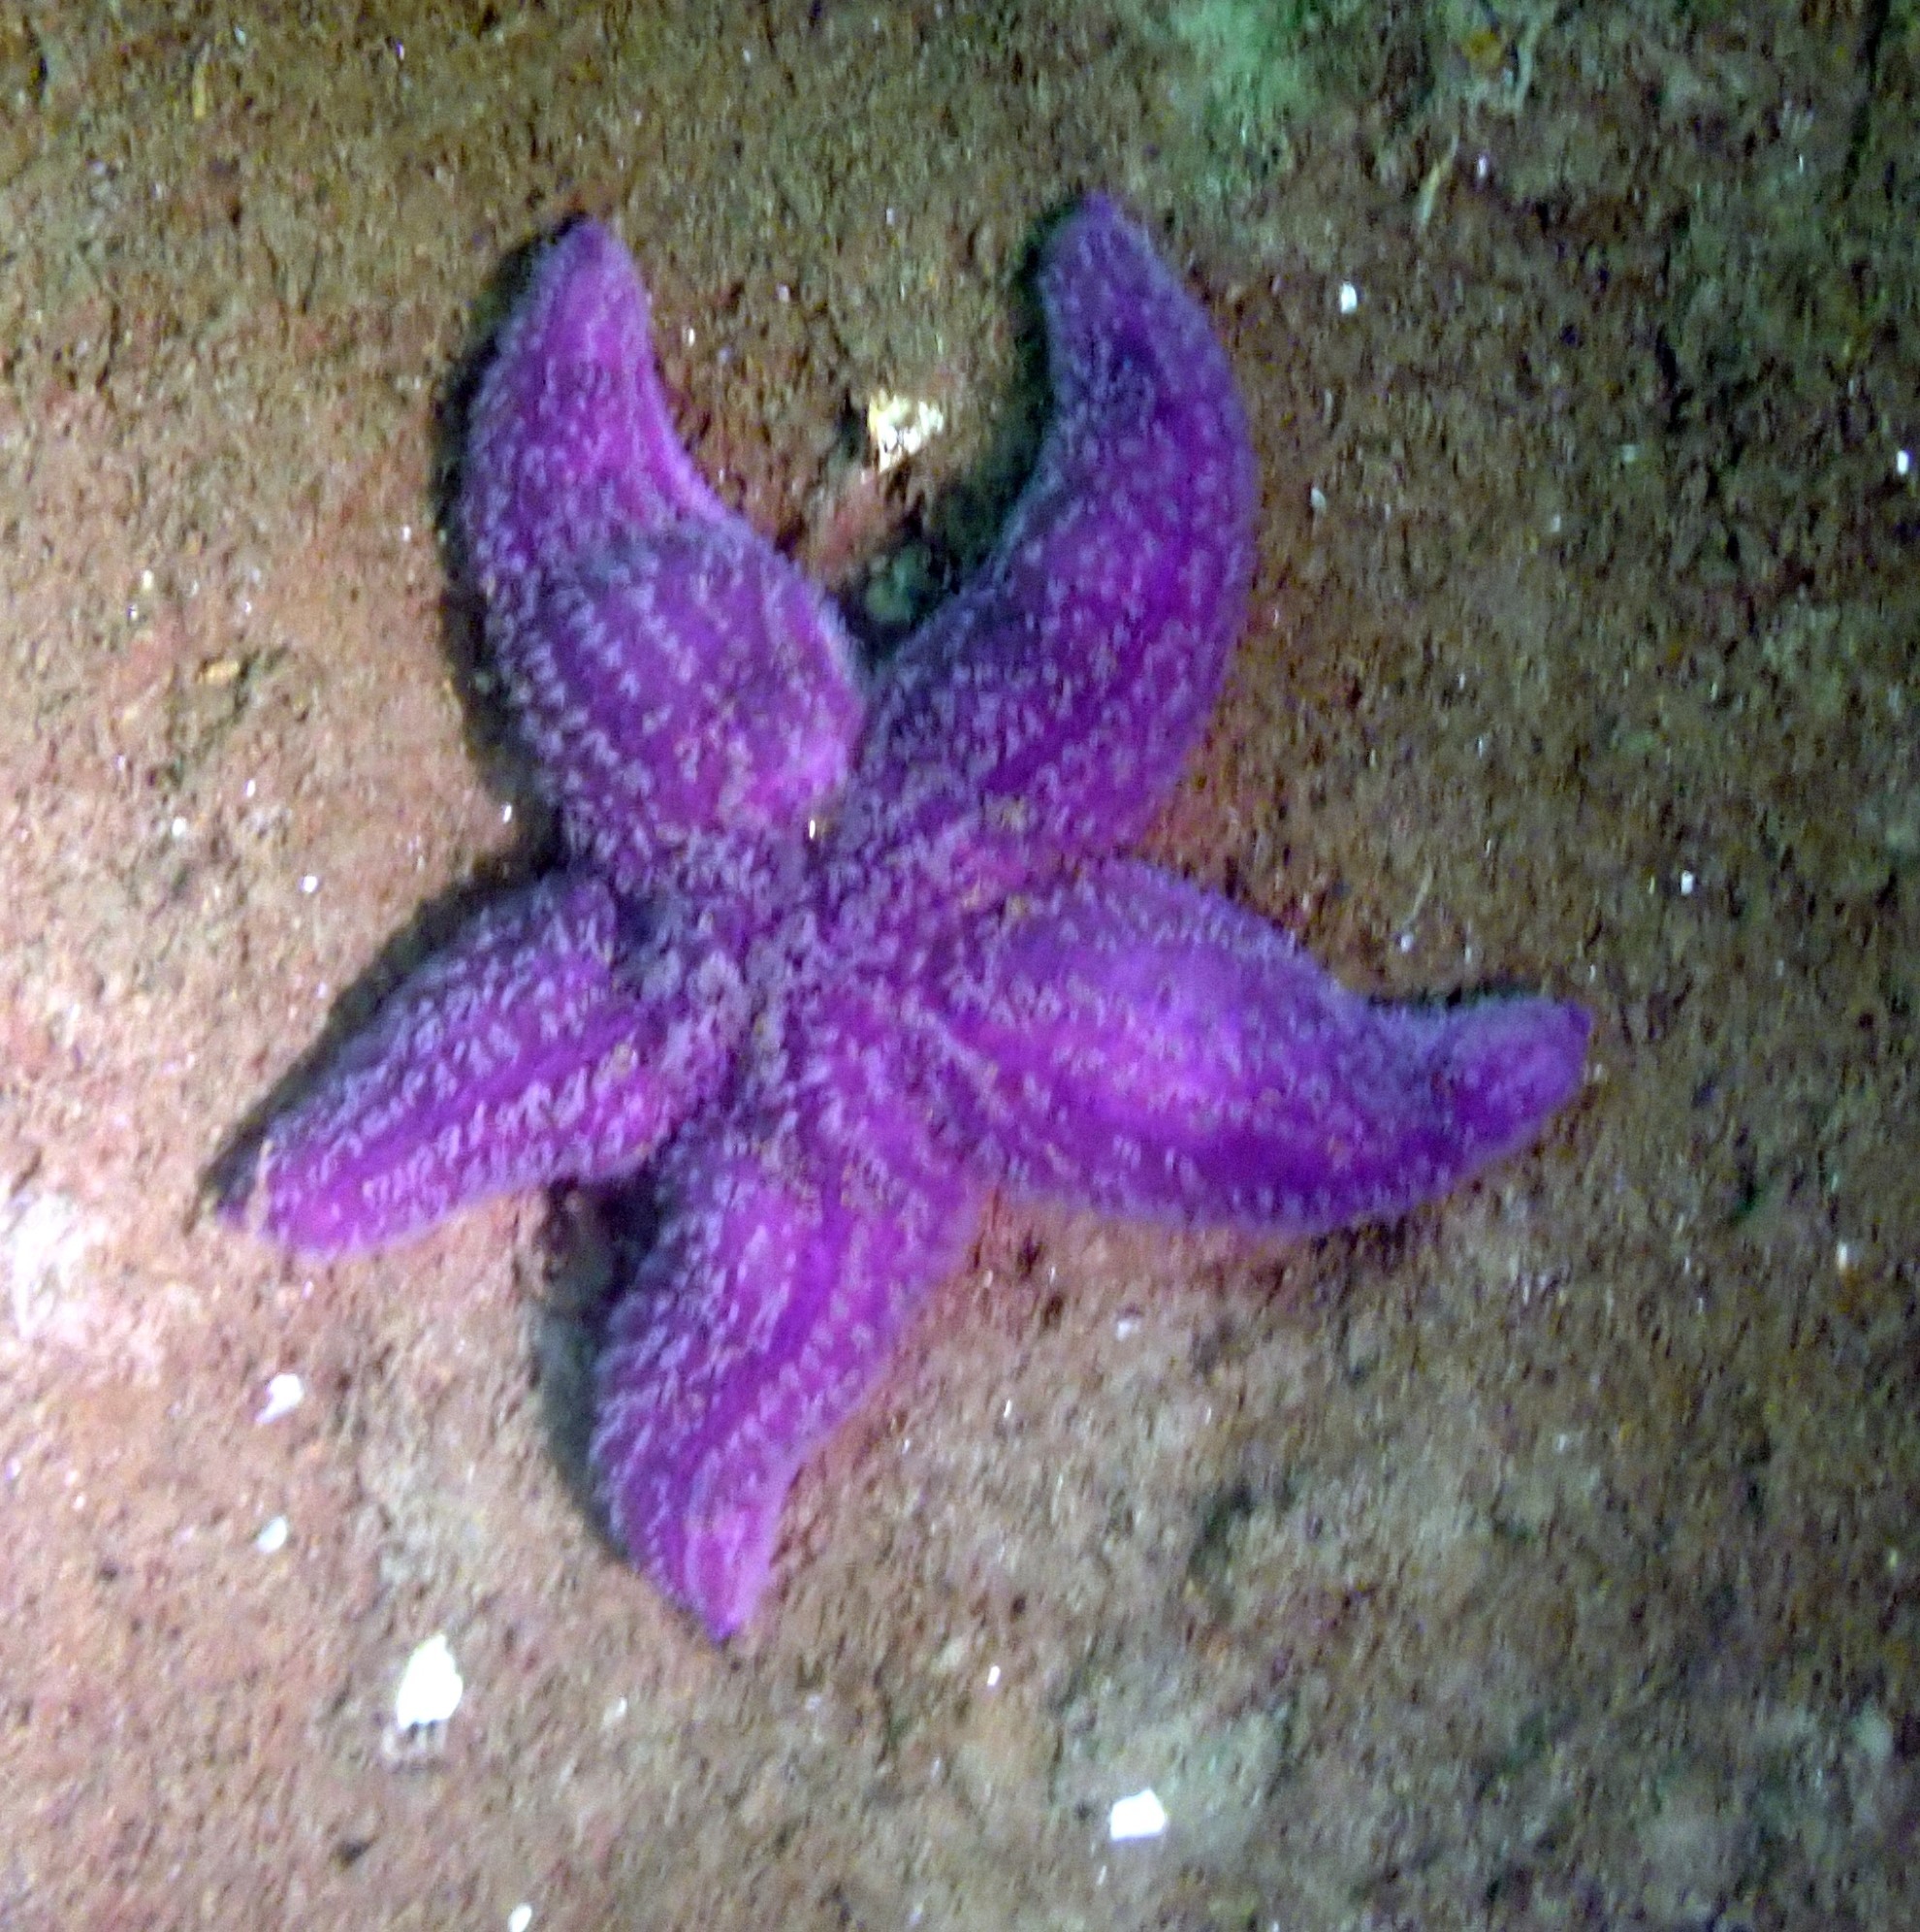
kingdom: Animalia
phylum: Echinodermata
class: Asteroidea
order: Forcipulatida
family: Asteriidae
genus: Asterias
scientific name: Asterias rubens
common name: Common starfish
